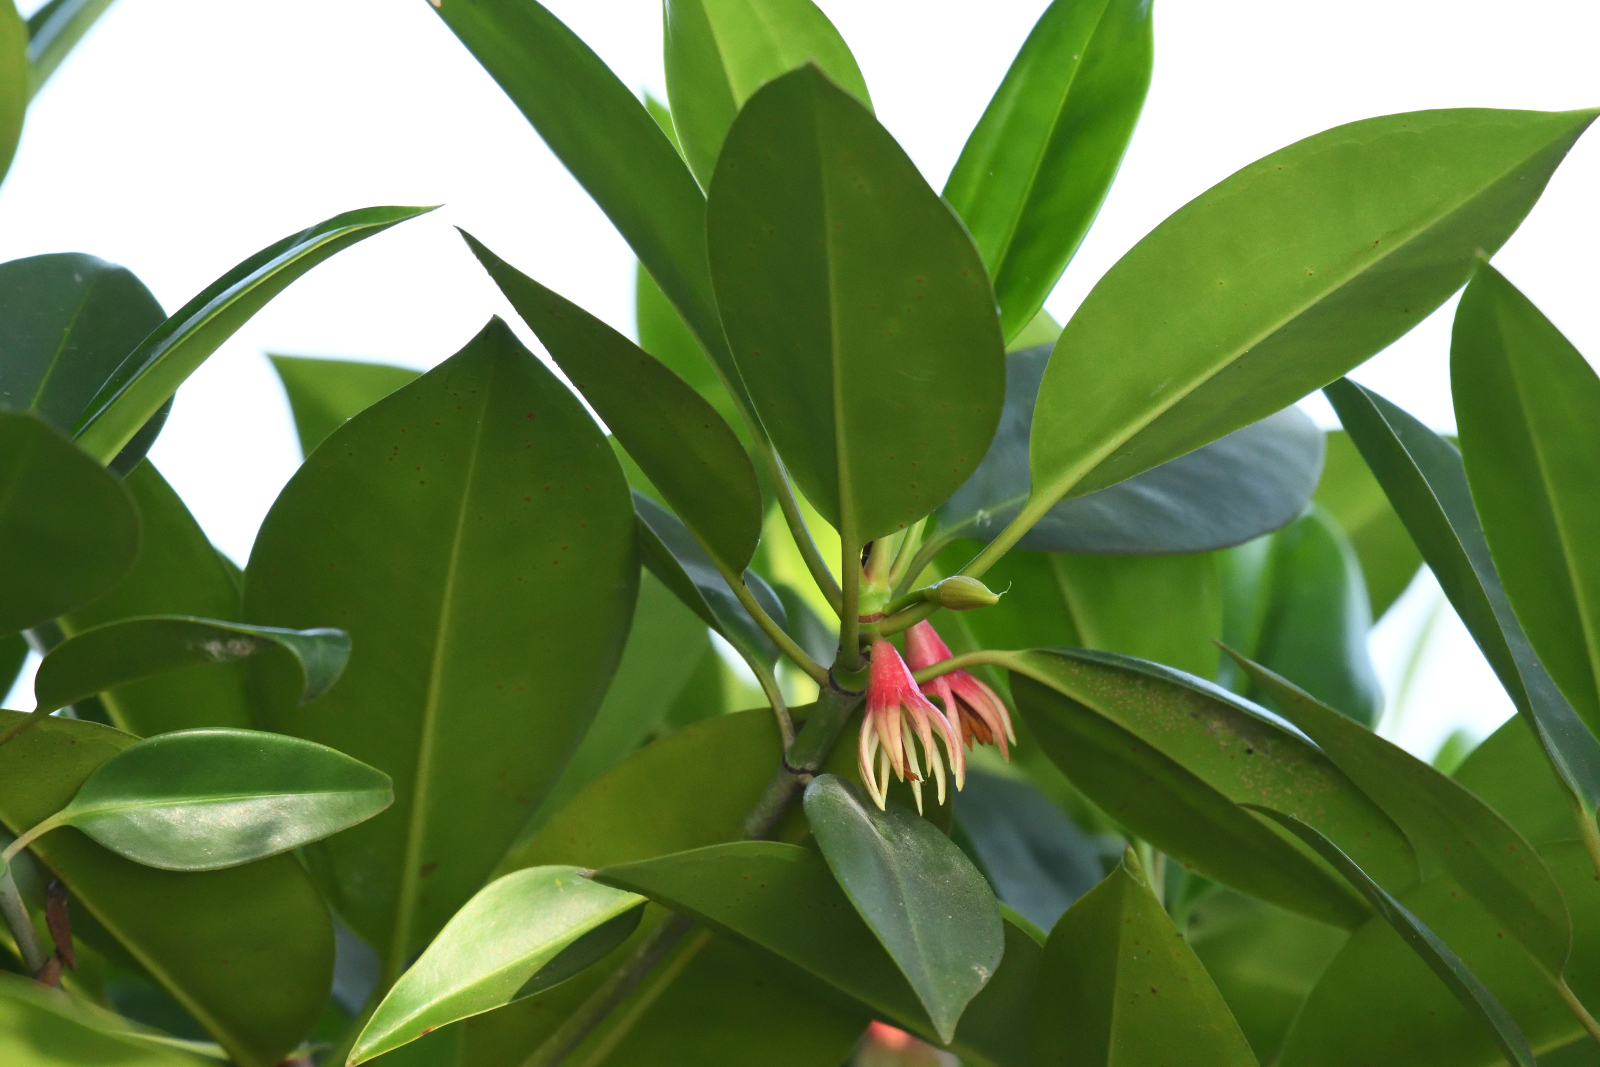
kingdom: Plantae
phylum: Tracheophyta
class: Magnoliopsida
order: Malpighiales
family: Rhizophoraceae
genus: Bruguiera
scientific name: Bruguiera gymnorhiza
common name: Oriental mangrove
